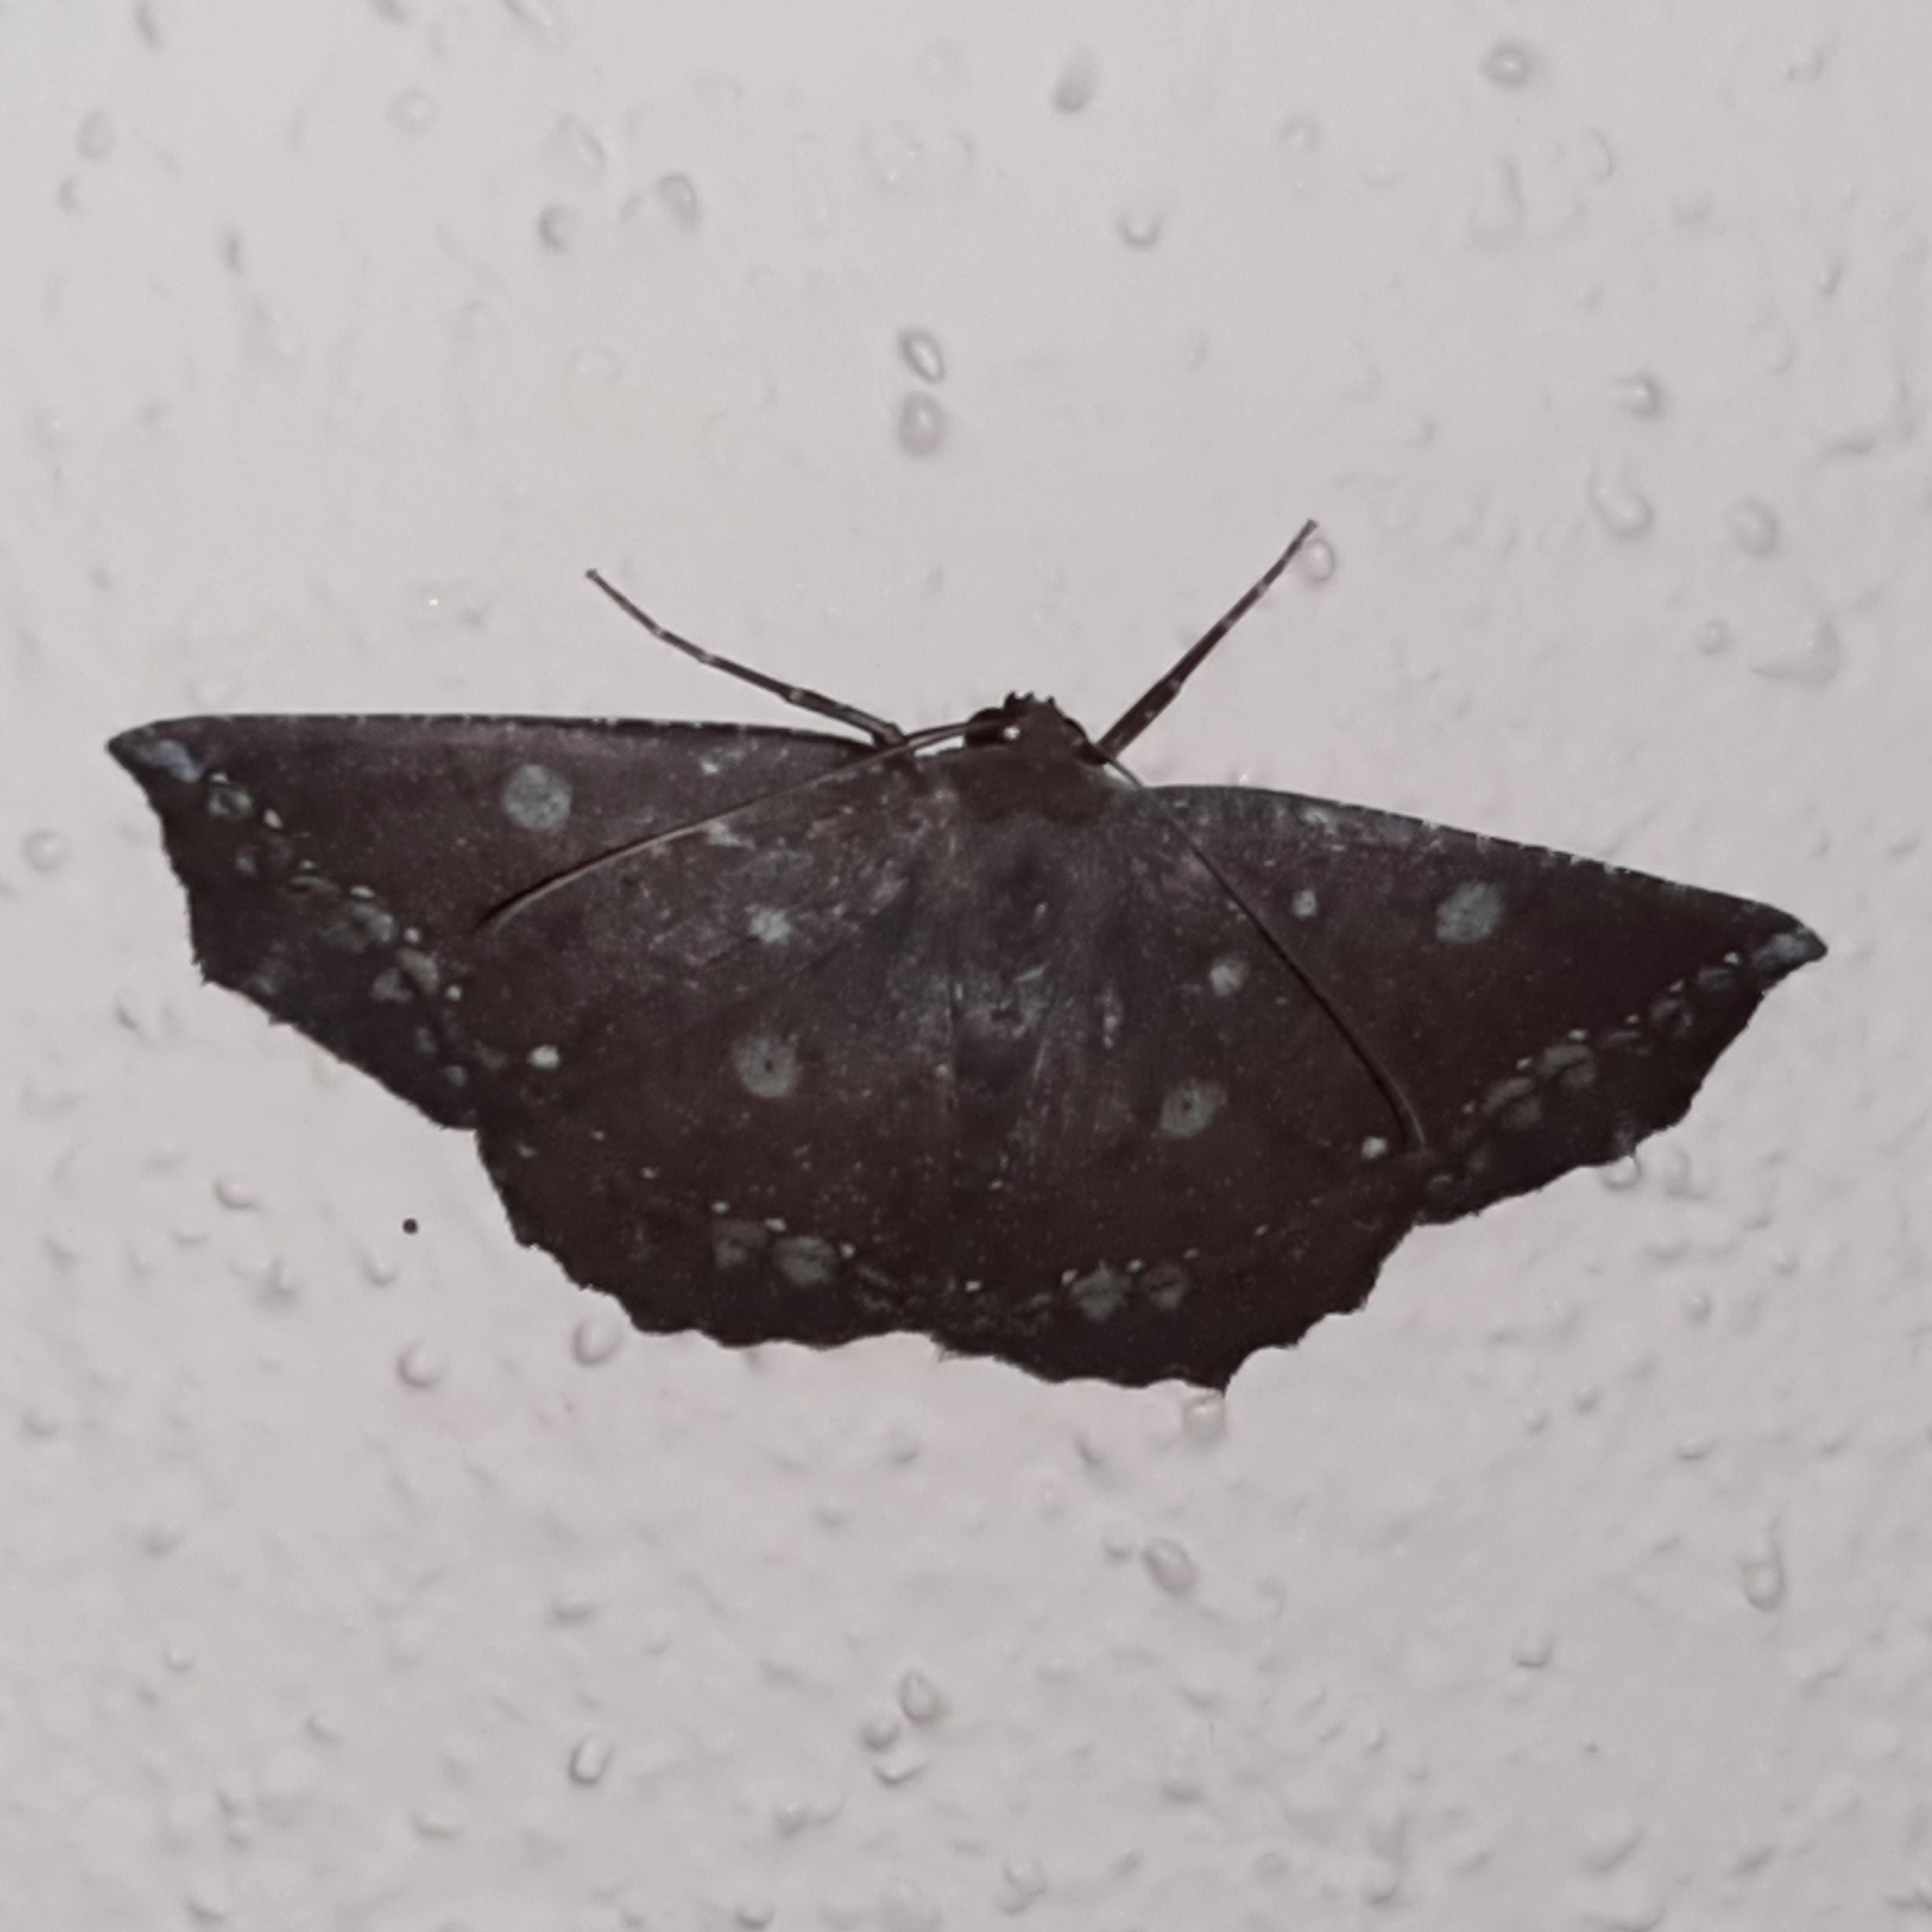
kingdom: Animalia
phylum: Arthropoda
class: Insecta
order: Lepidoptera
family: Geometridae
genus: Synnomos
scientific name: Synnomos firmamentaria
